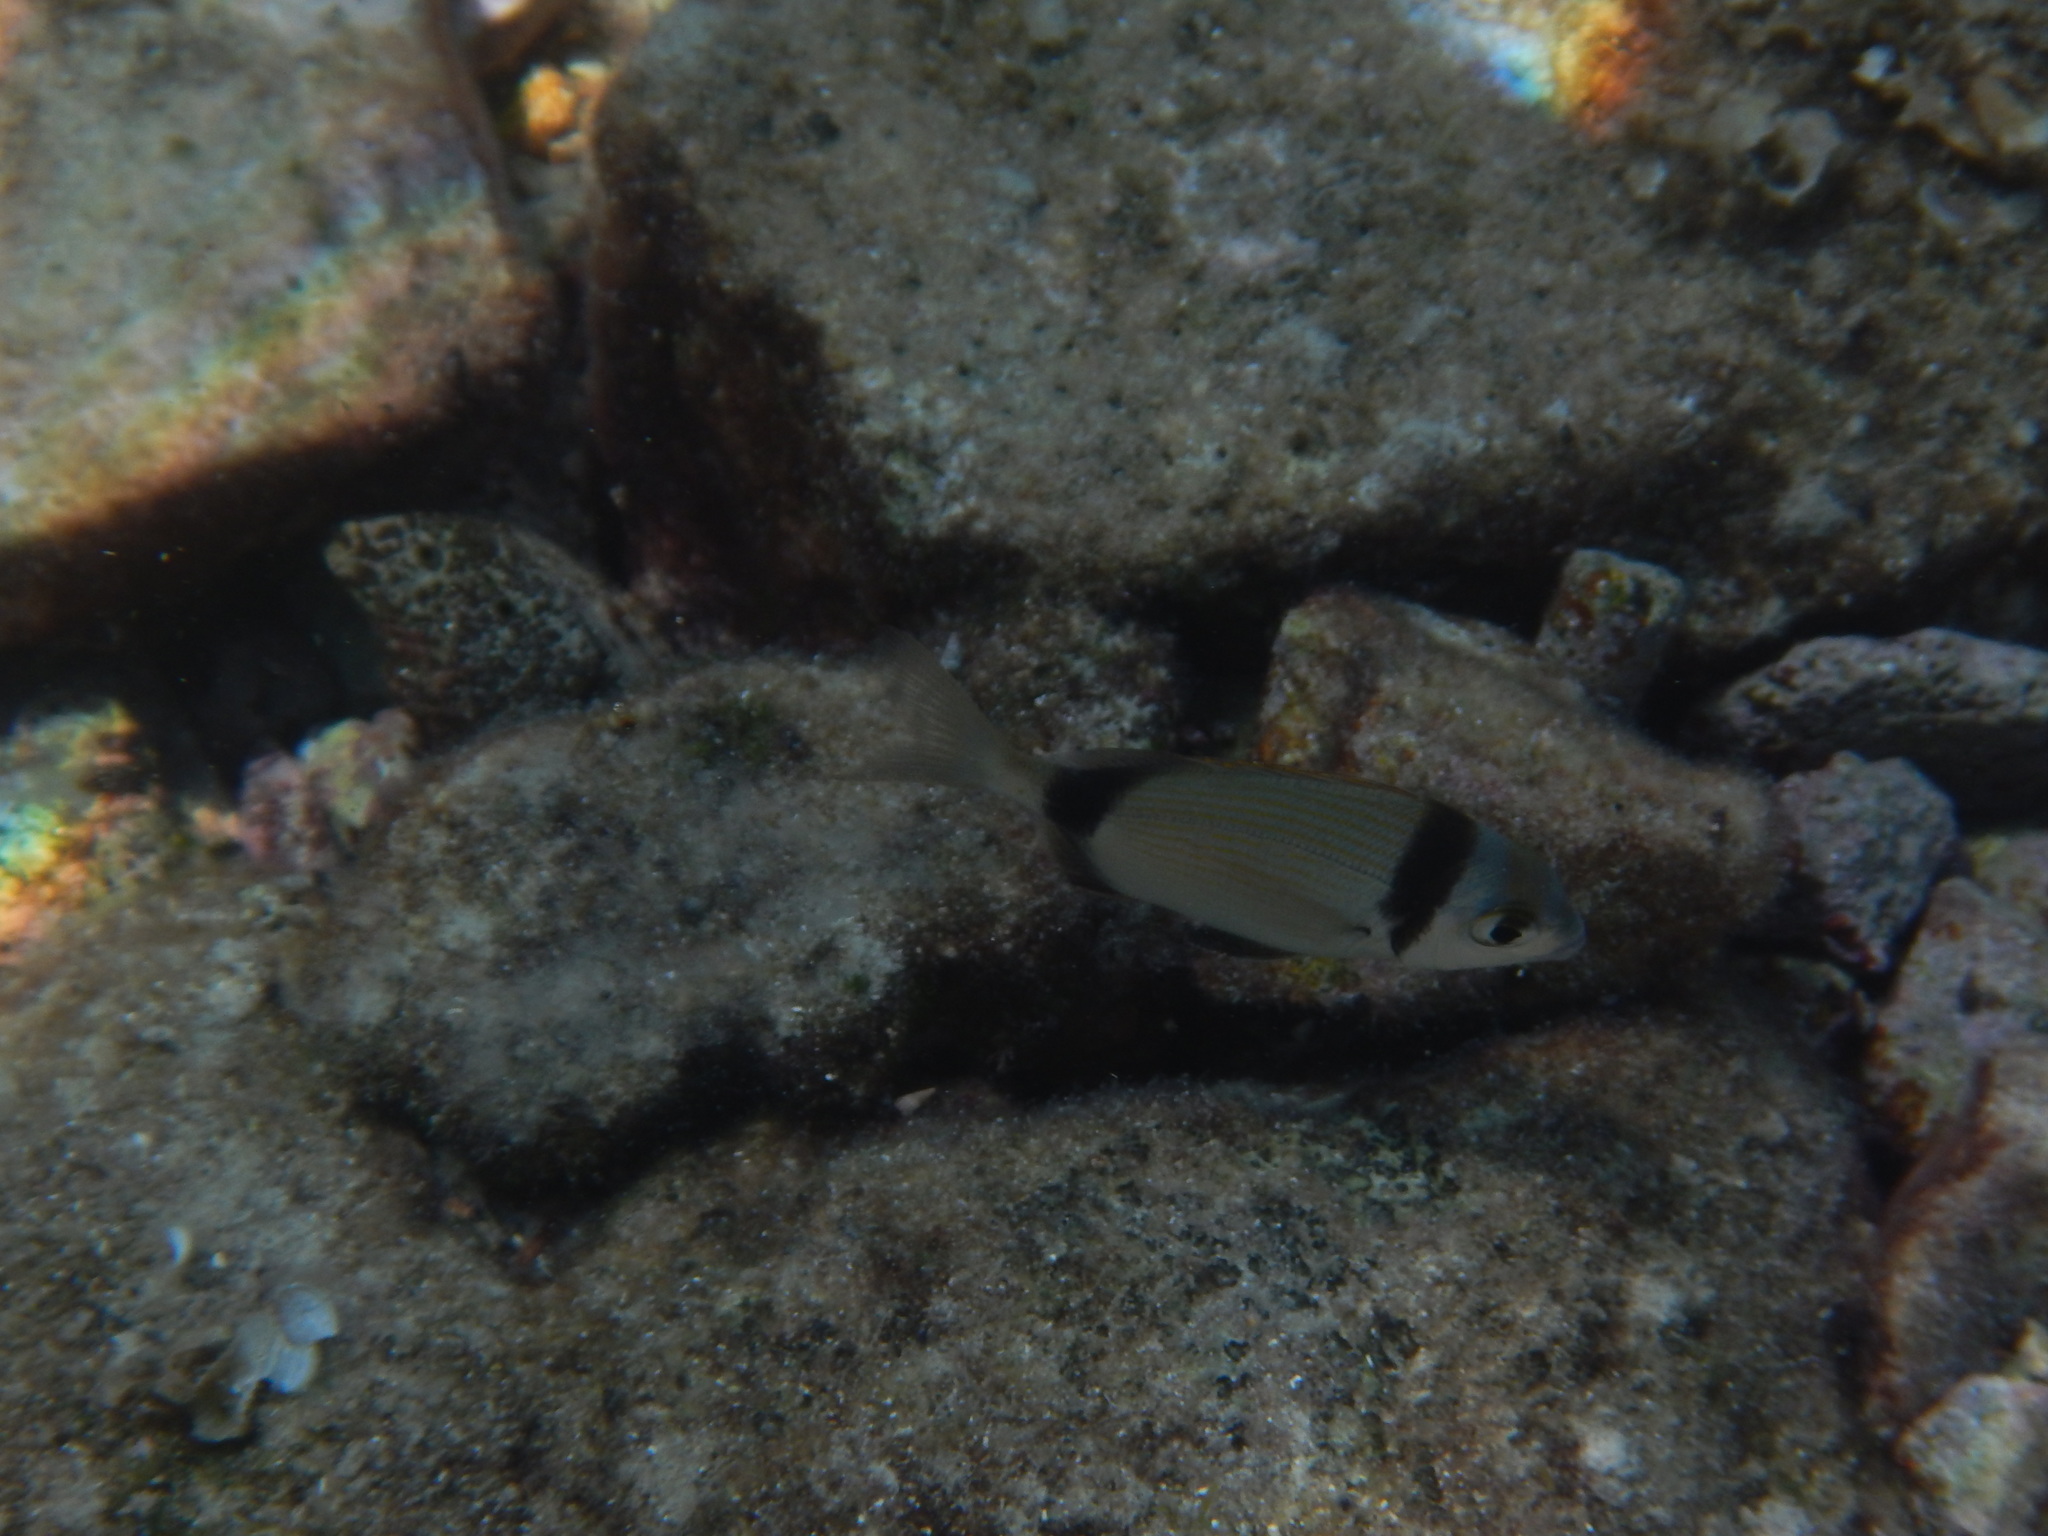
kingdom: Animalia
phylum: Chordata
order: Perciformes
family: Sparidae
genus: Diplodus
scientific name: Diplodus vulgaris
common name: Common two-banded seabream
